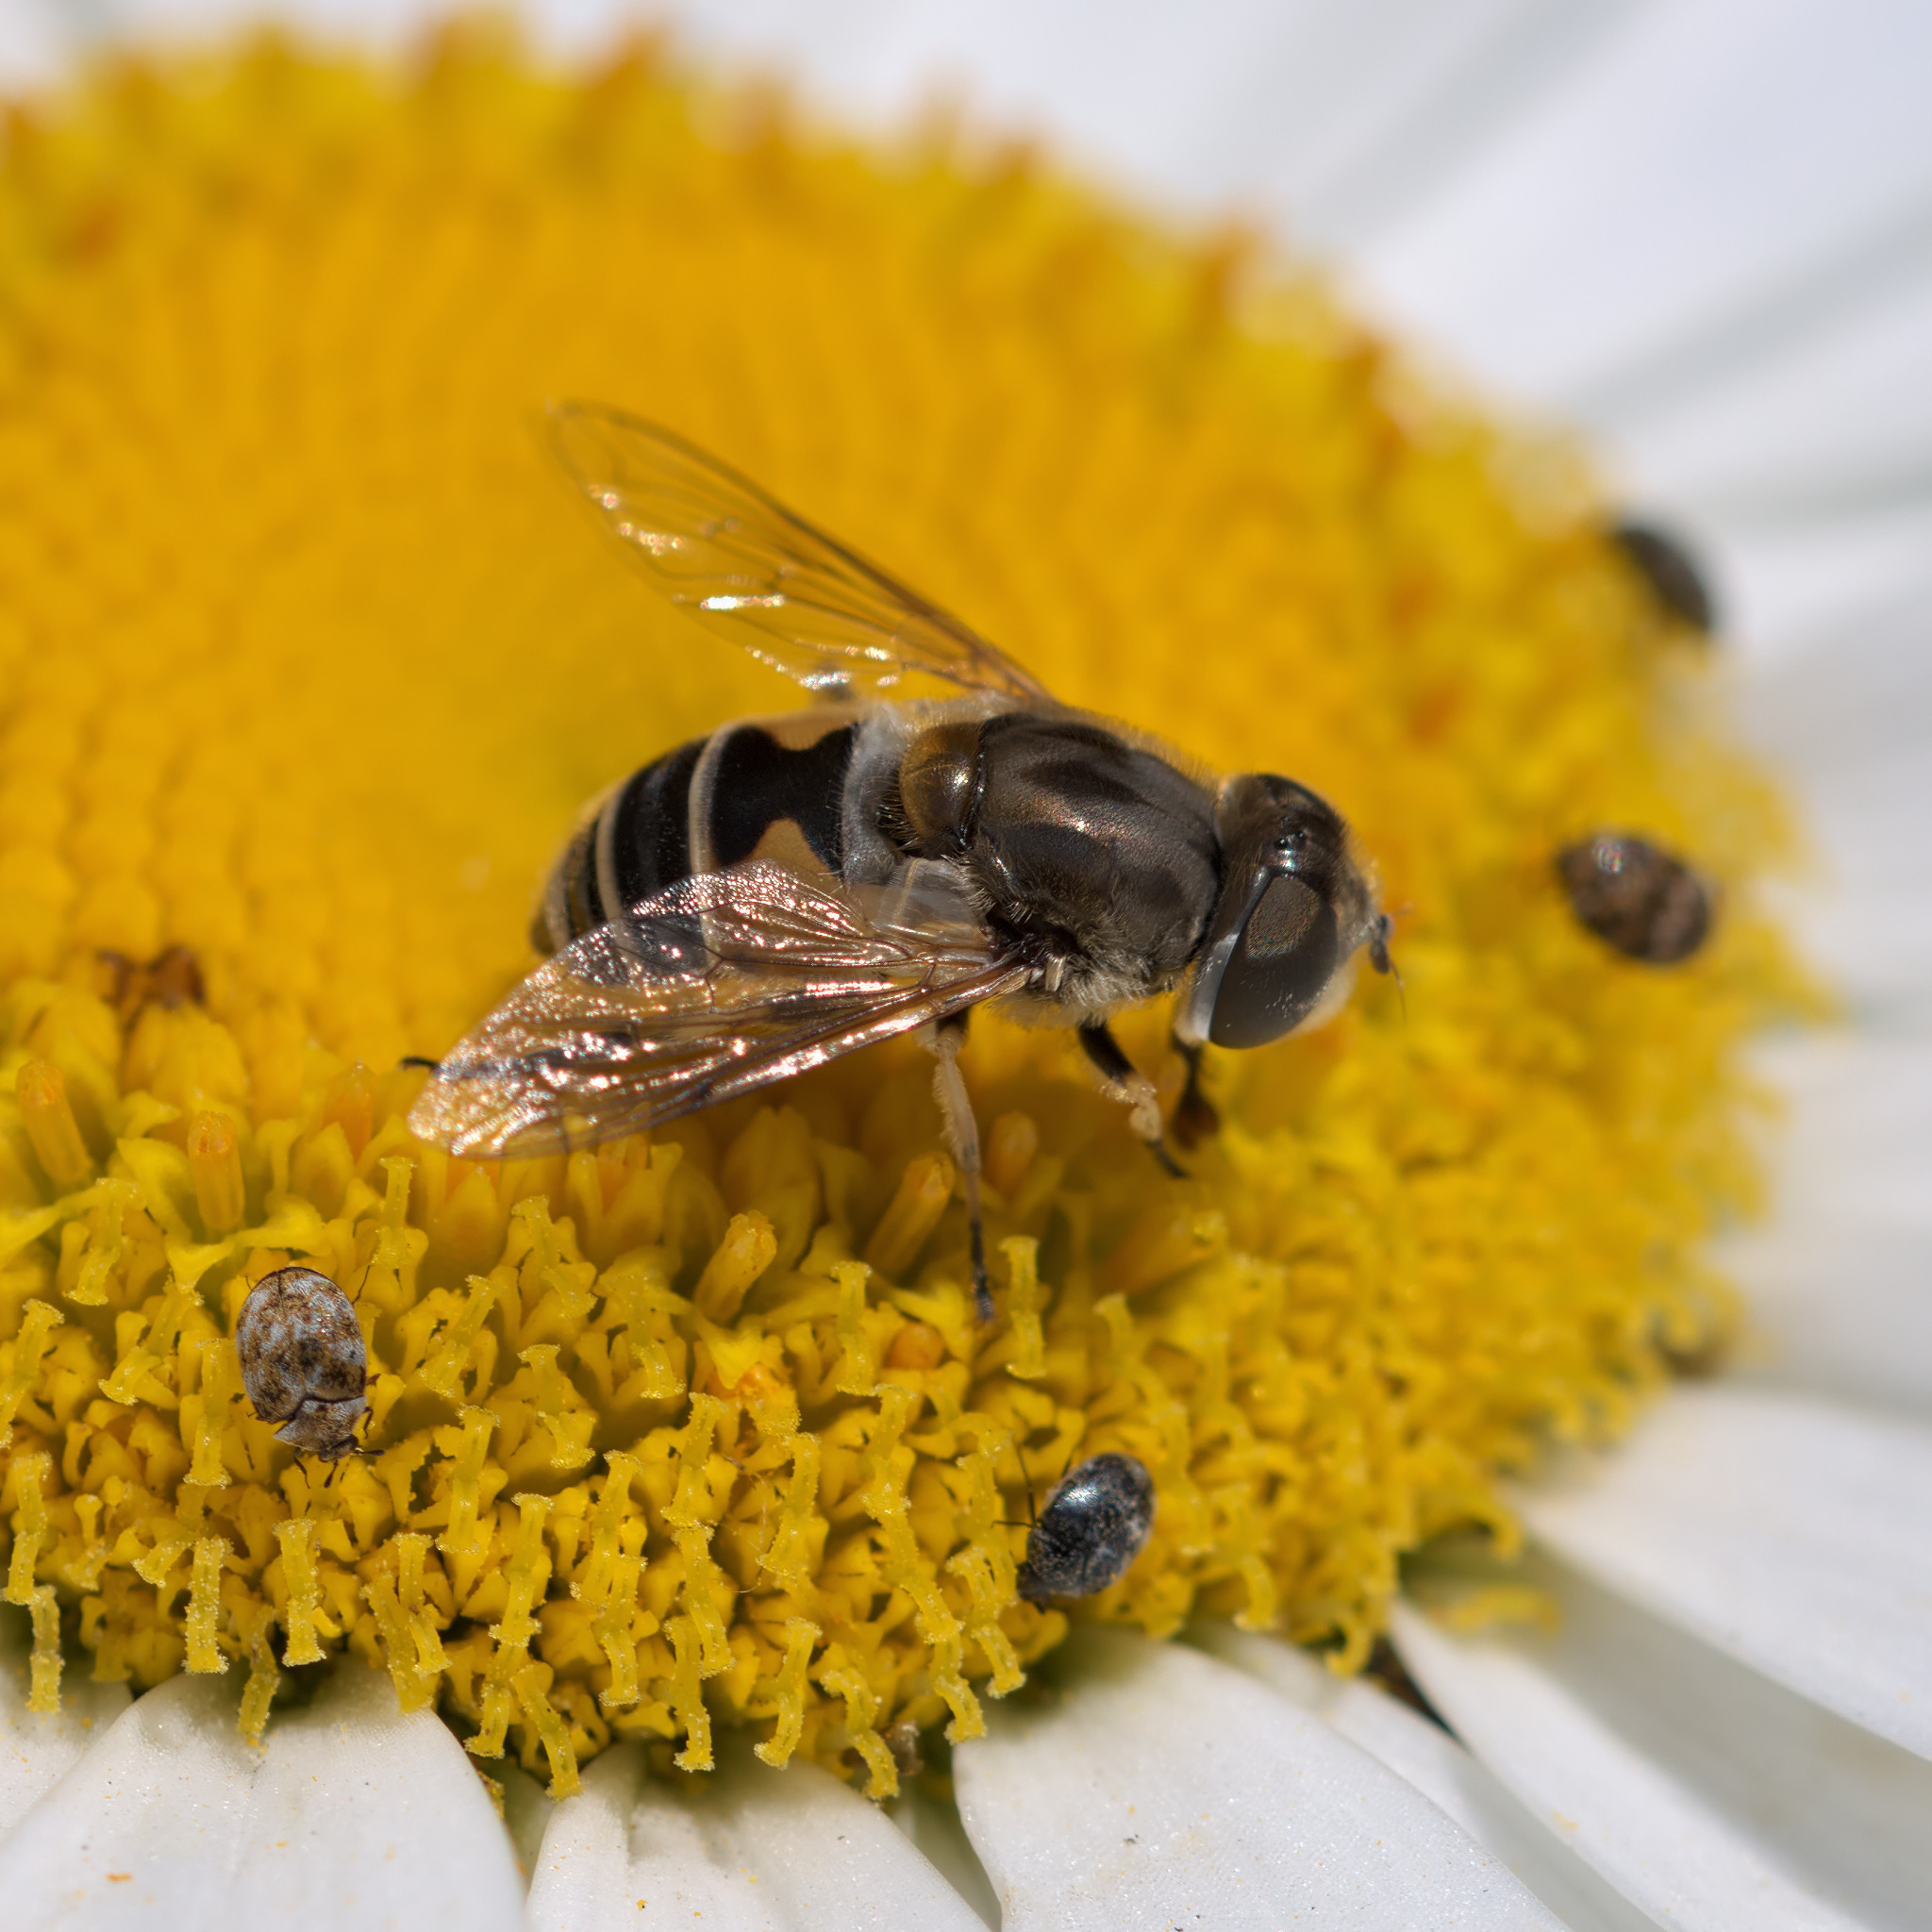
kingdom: Animalia
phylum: Arthropoda
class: Insecta
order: Diptera
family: Syrphidae
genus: Eristalis
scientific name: Eristalis arbustorum
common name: Hover fly
